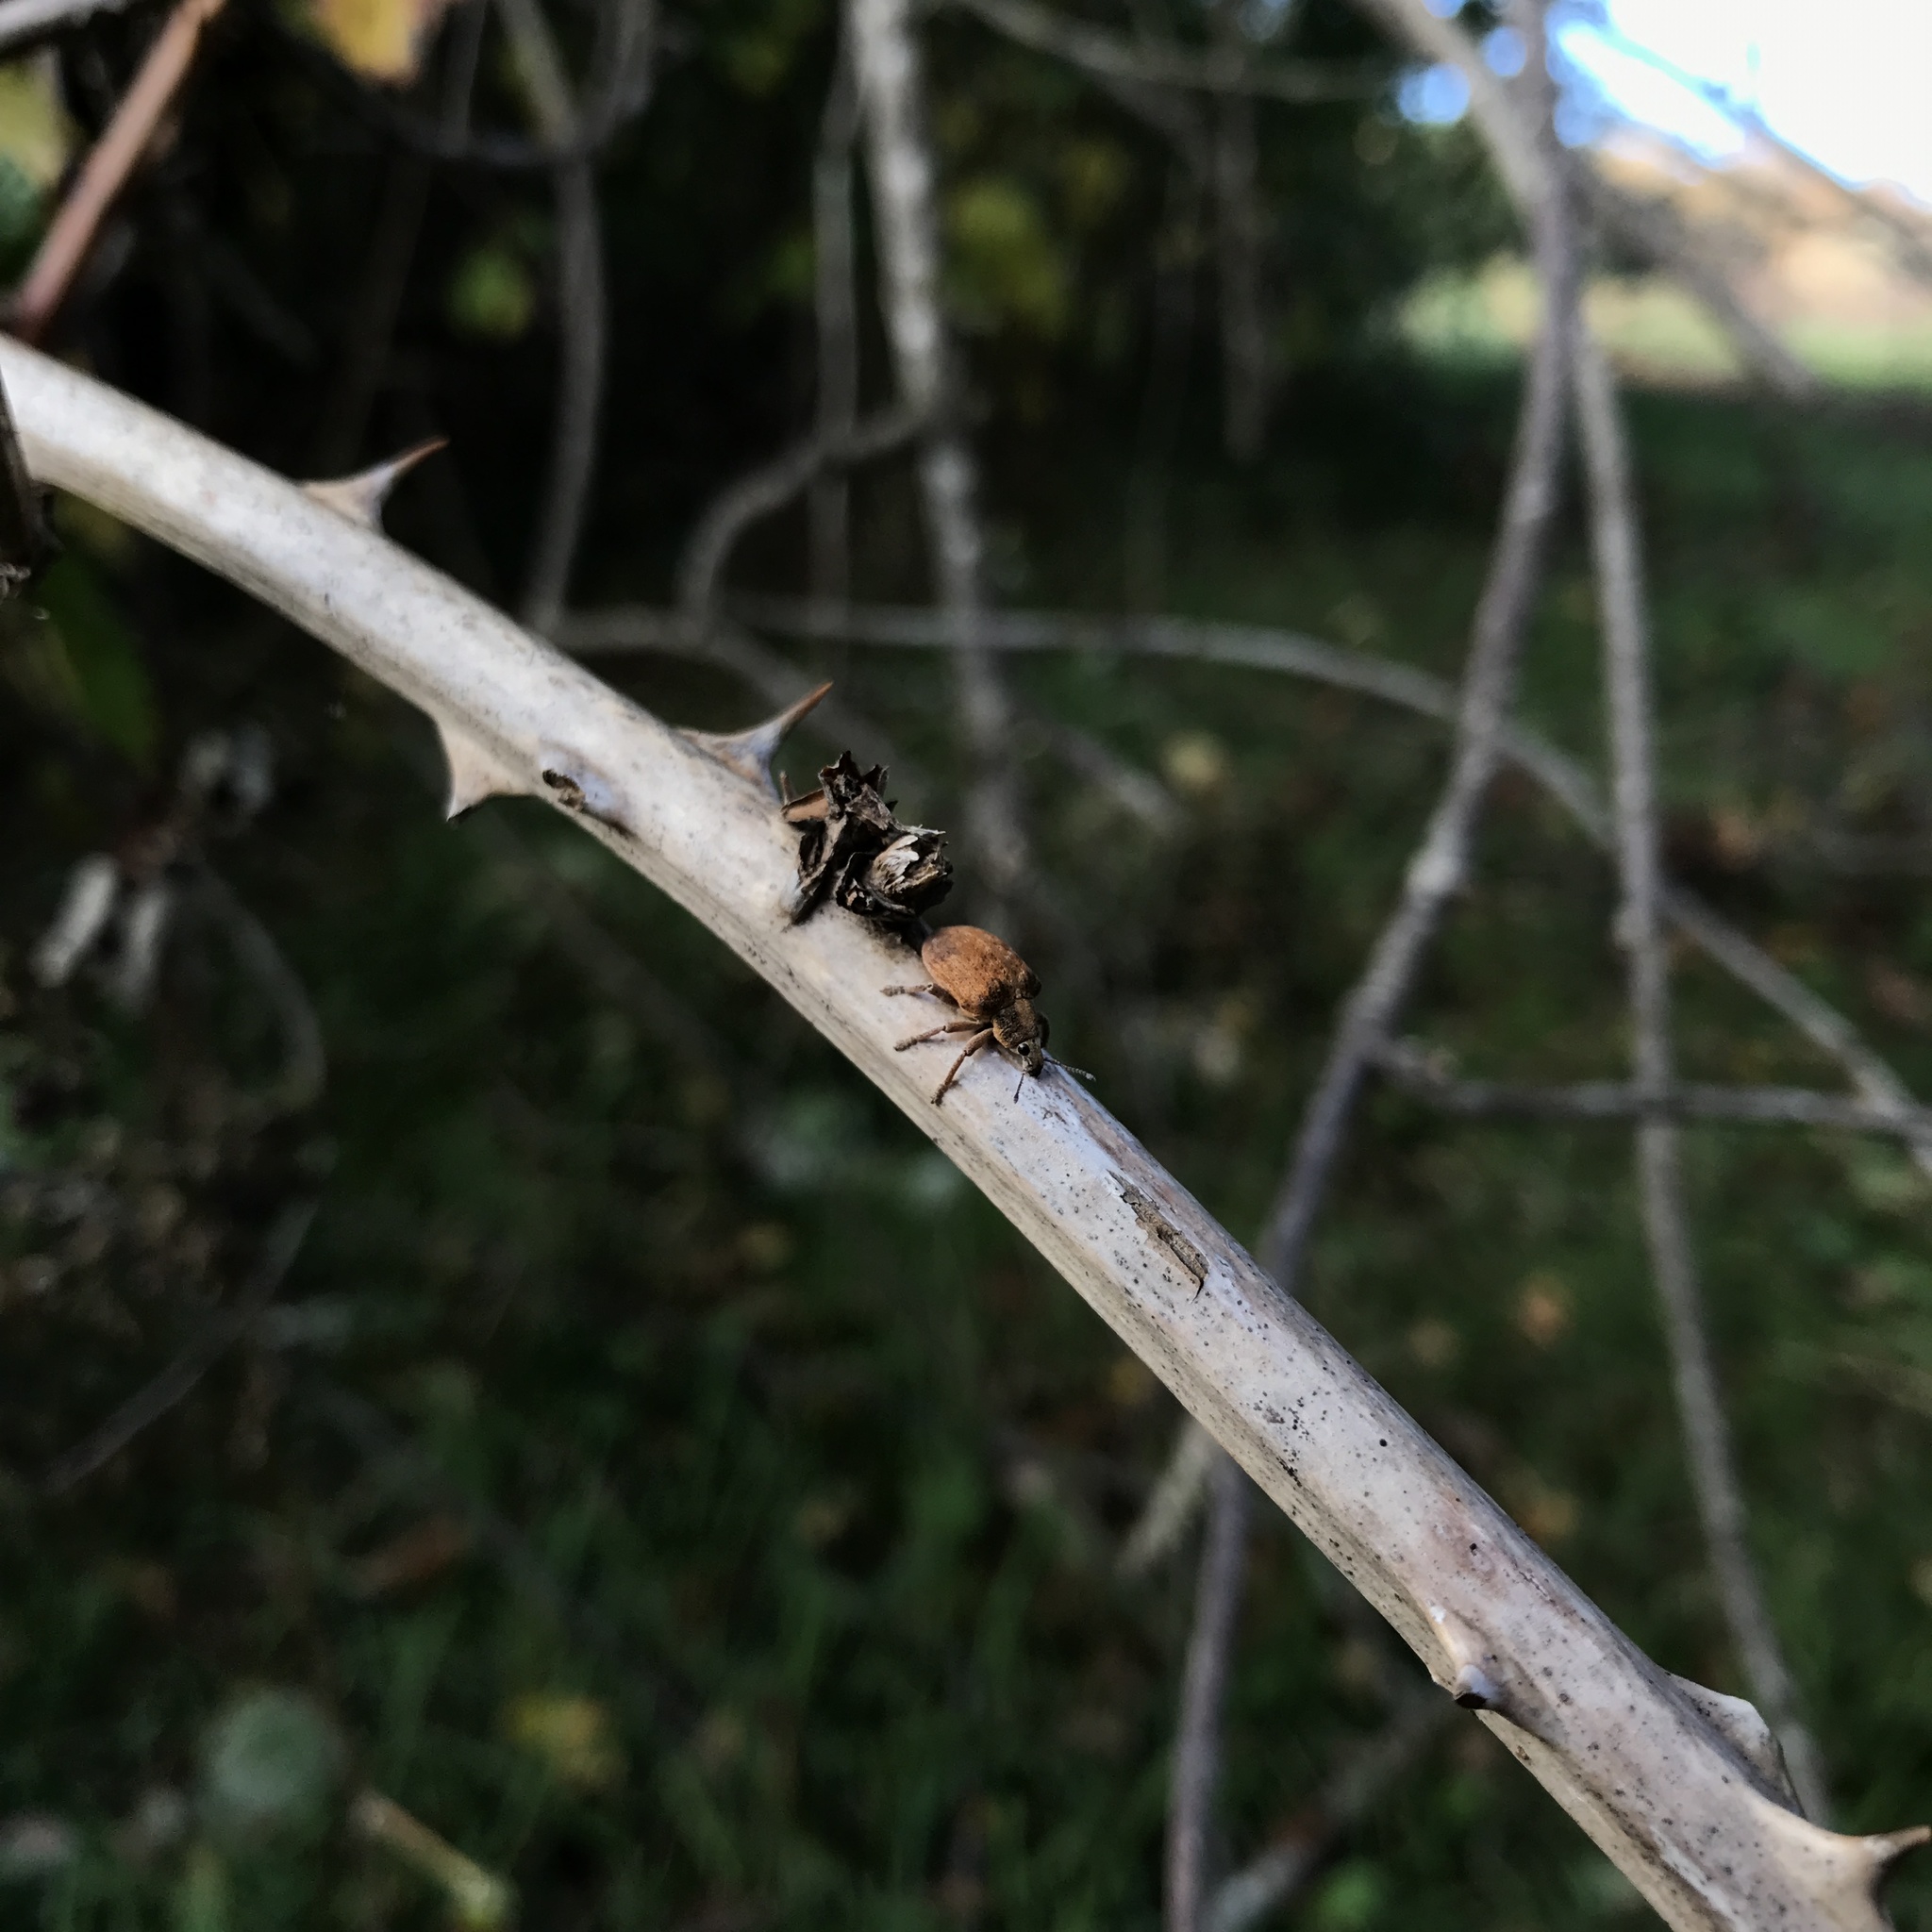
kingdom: Animalia
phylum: Arthropoda
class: Insecta
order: Coleoptera
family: Curculionidae
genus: Gonipterus
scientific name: Gonipterus platensis
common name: Eucalyptus snout beetle
